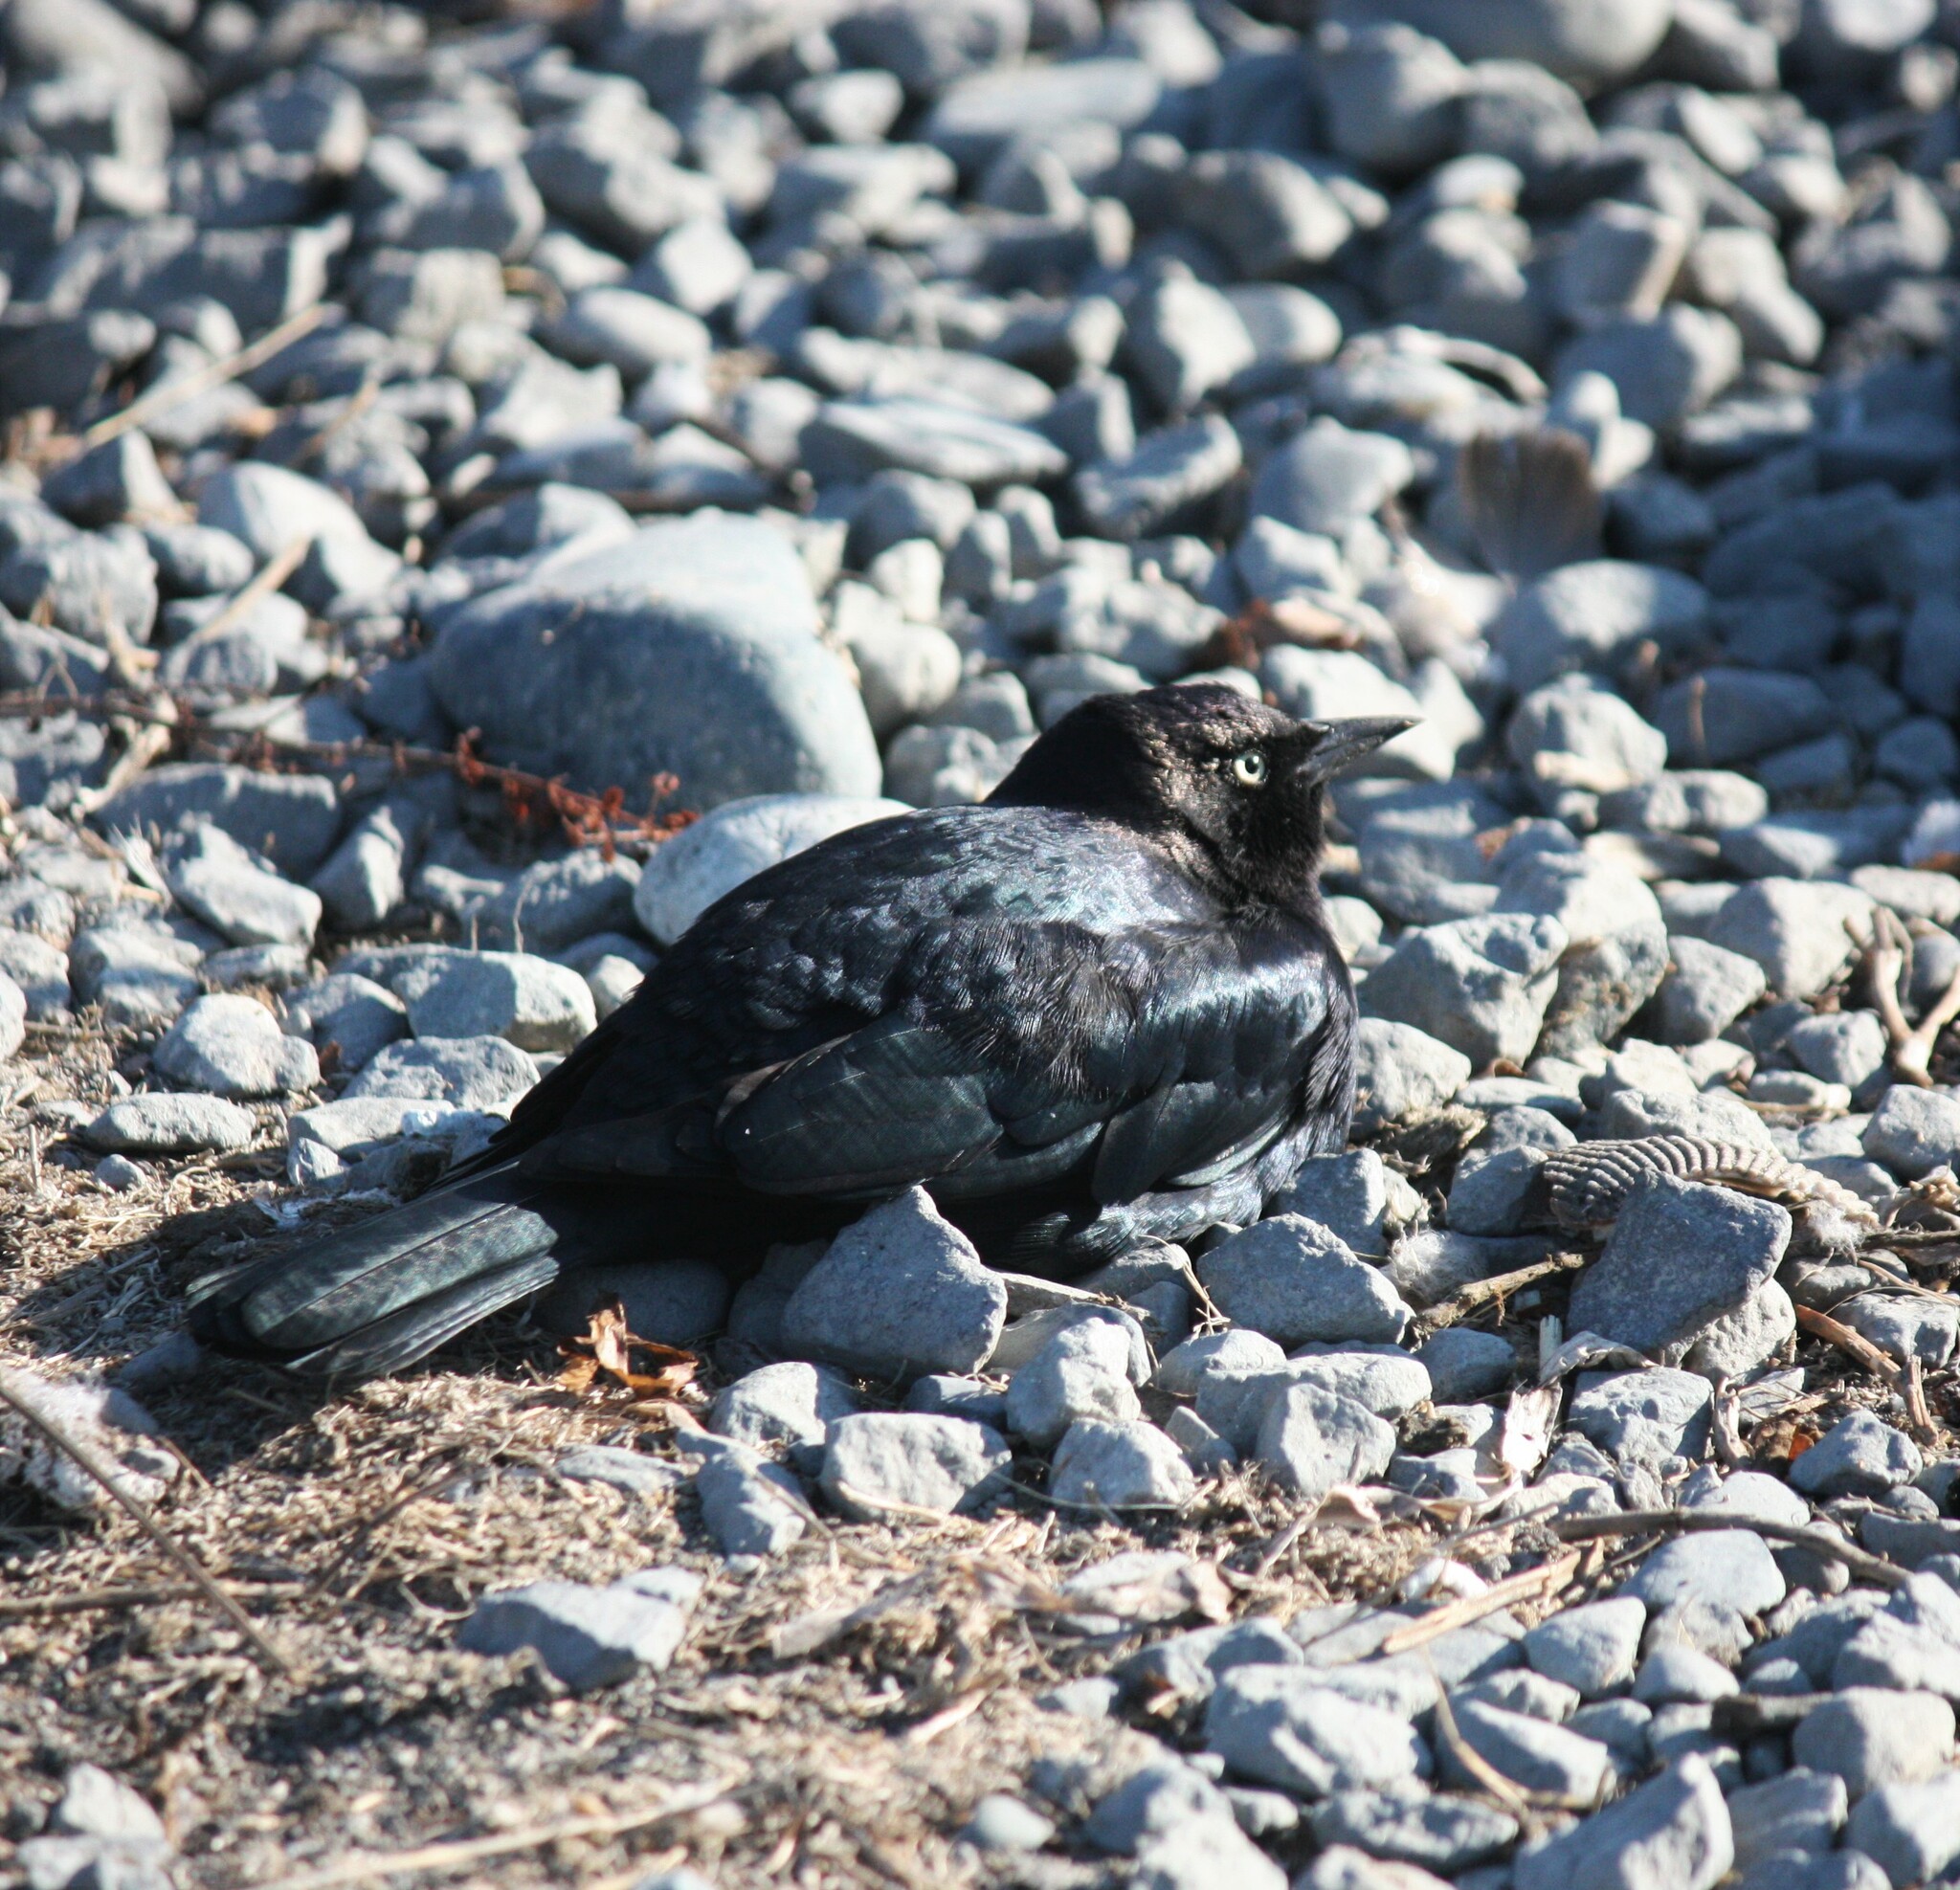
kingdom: Animalia
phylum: Chordata
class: Aves
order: Passeriformes
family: Icteridae
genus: Euphagus
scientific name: Euphagus cyanocephalus
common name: Brewer's blackbird
